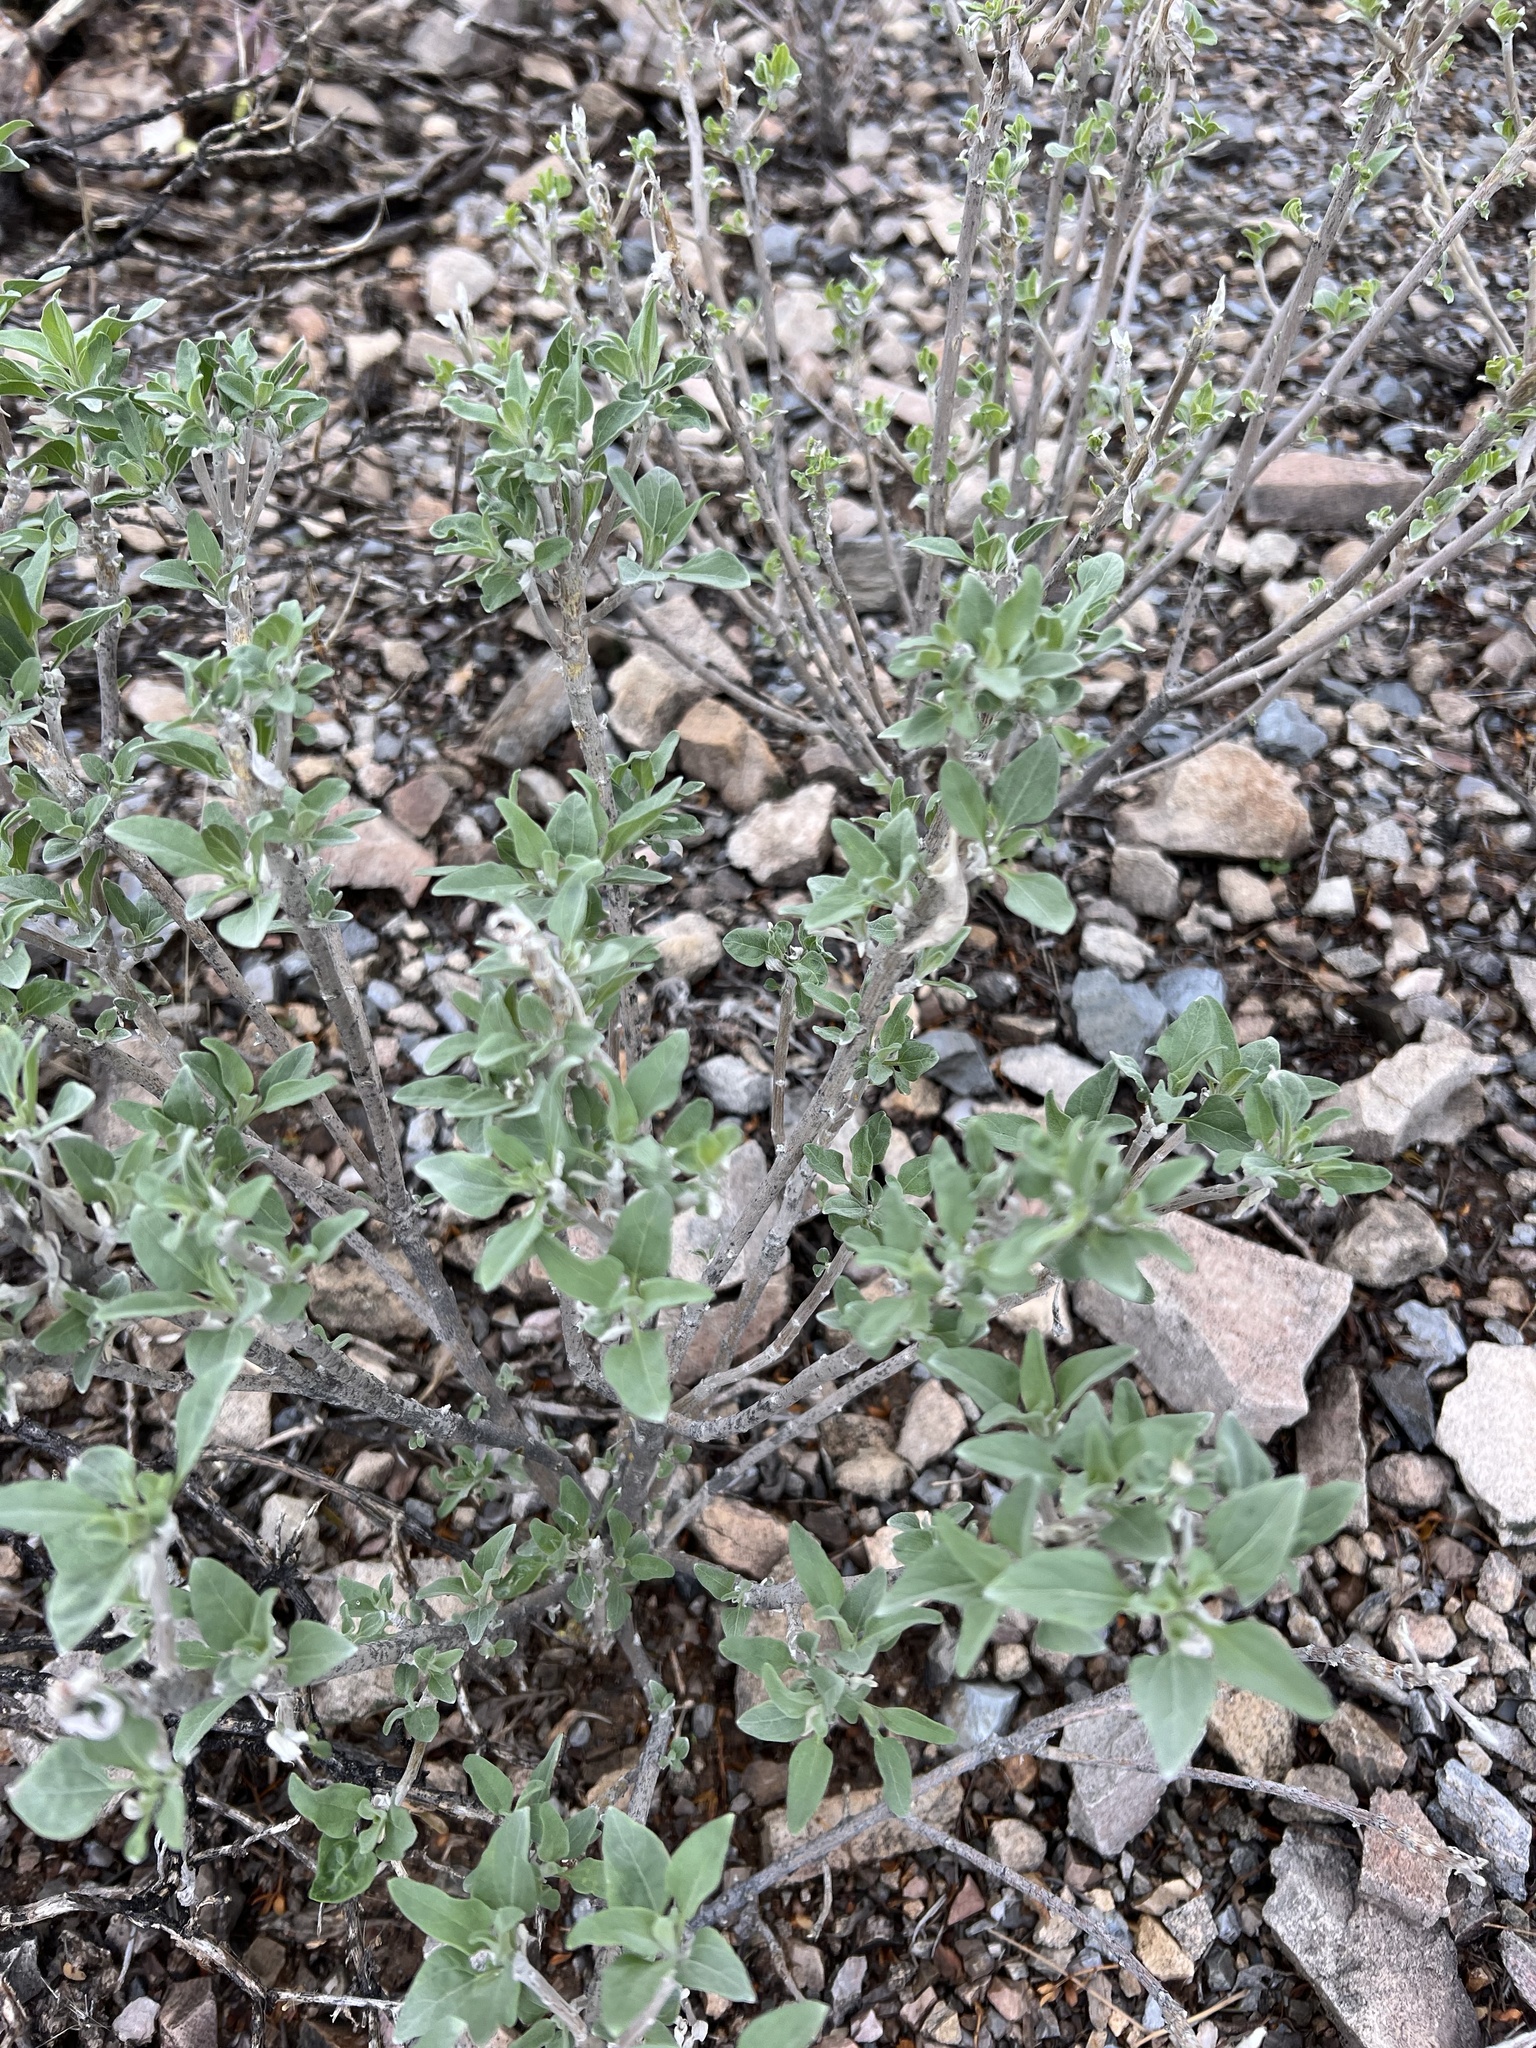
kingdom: Plantae
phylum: Tracheophyta
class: Magnoliopsida
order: Asterales
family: Asteraceae
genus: Encelia
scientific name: Encelia farinosa
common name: Brittlebush
